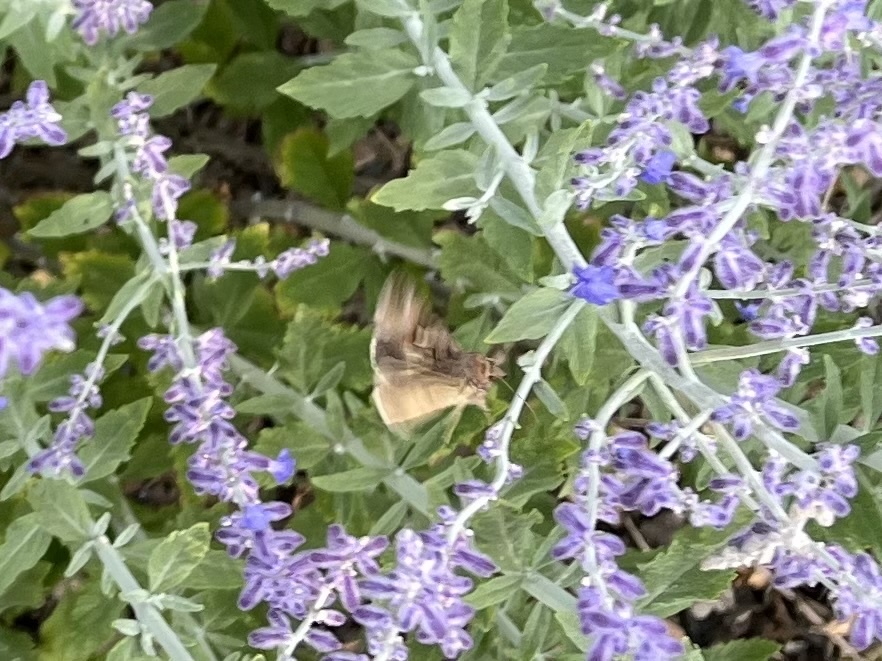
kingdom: Animalia
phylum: Arthropoda
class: Insecta
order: Lepidoptera
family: Noctuidae
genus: Autographa
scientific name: Autographa gamma
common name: Silver y
